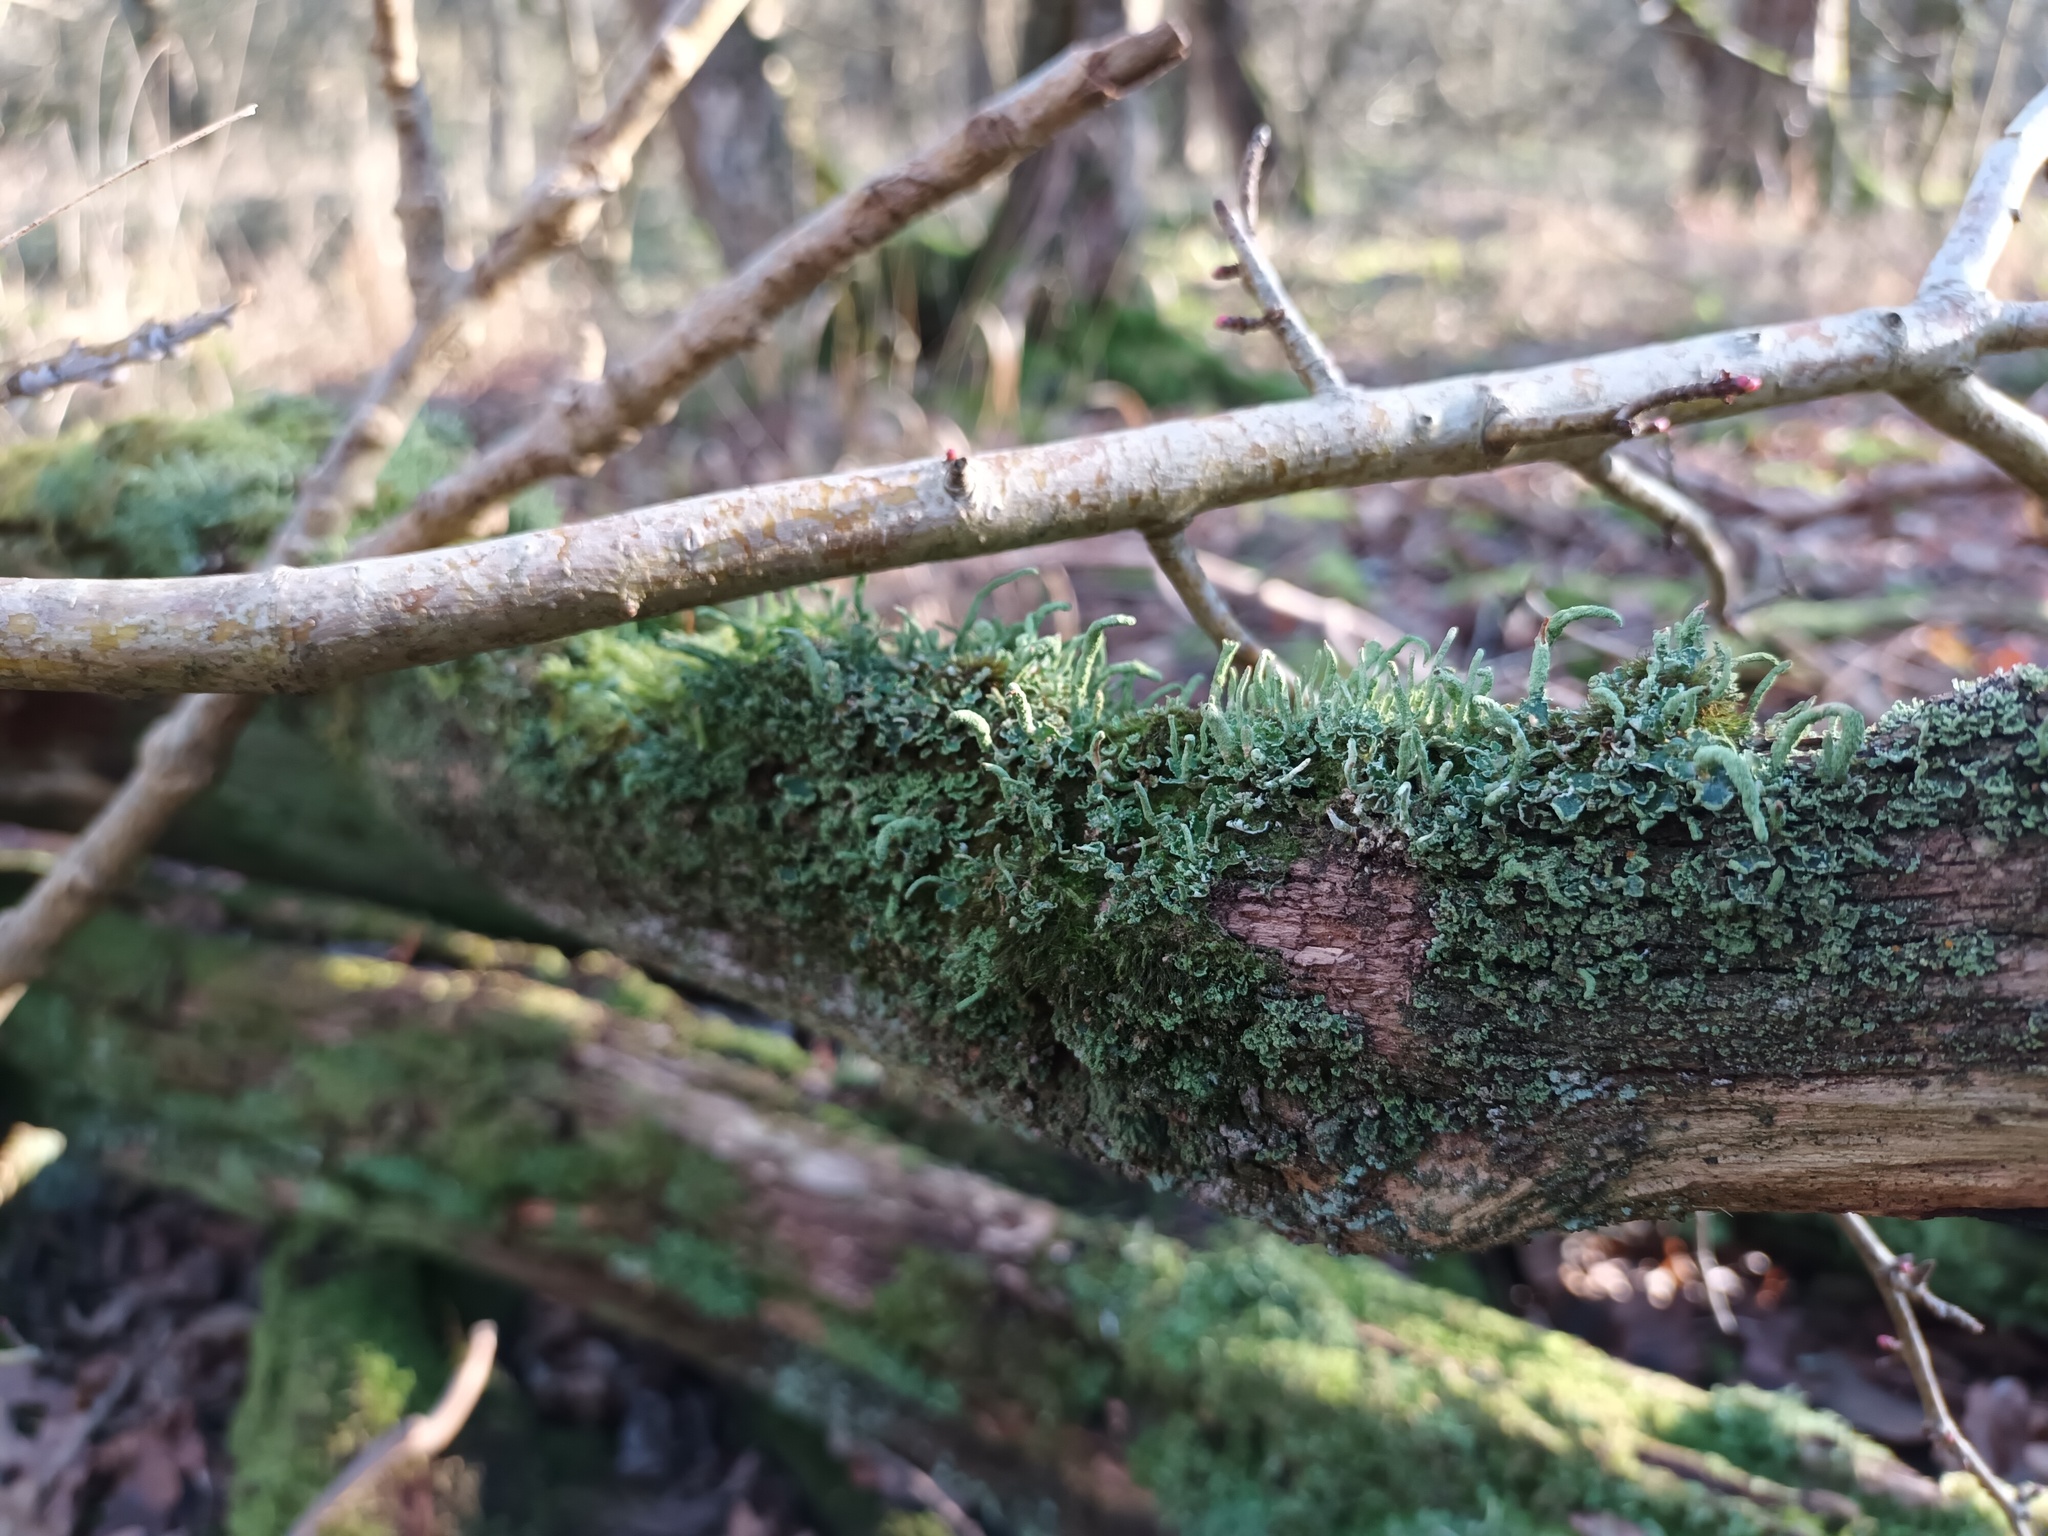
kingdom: Fungi
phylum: Ascomycota
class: Lecanoromycetes
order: Lecanorales
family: Cladoniaceae
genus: Cladonia
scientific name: Cladonia coniocraea
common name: Common powderhorn
